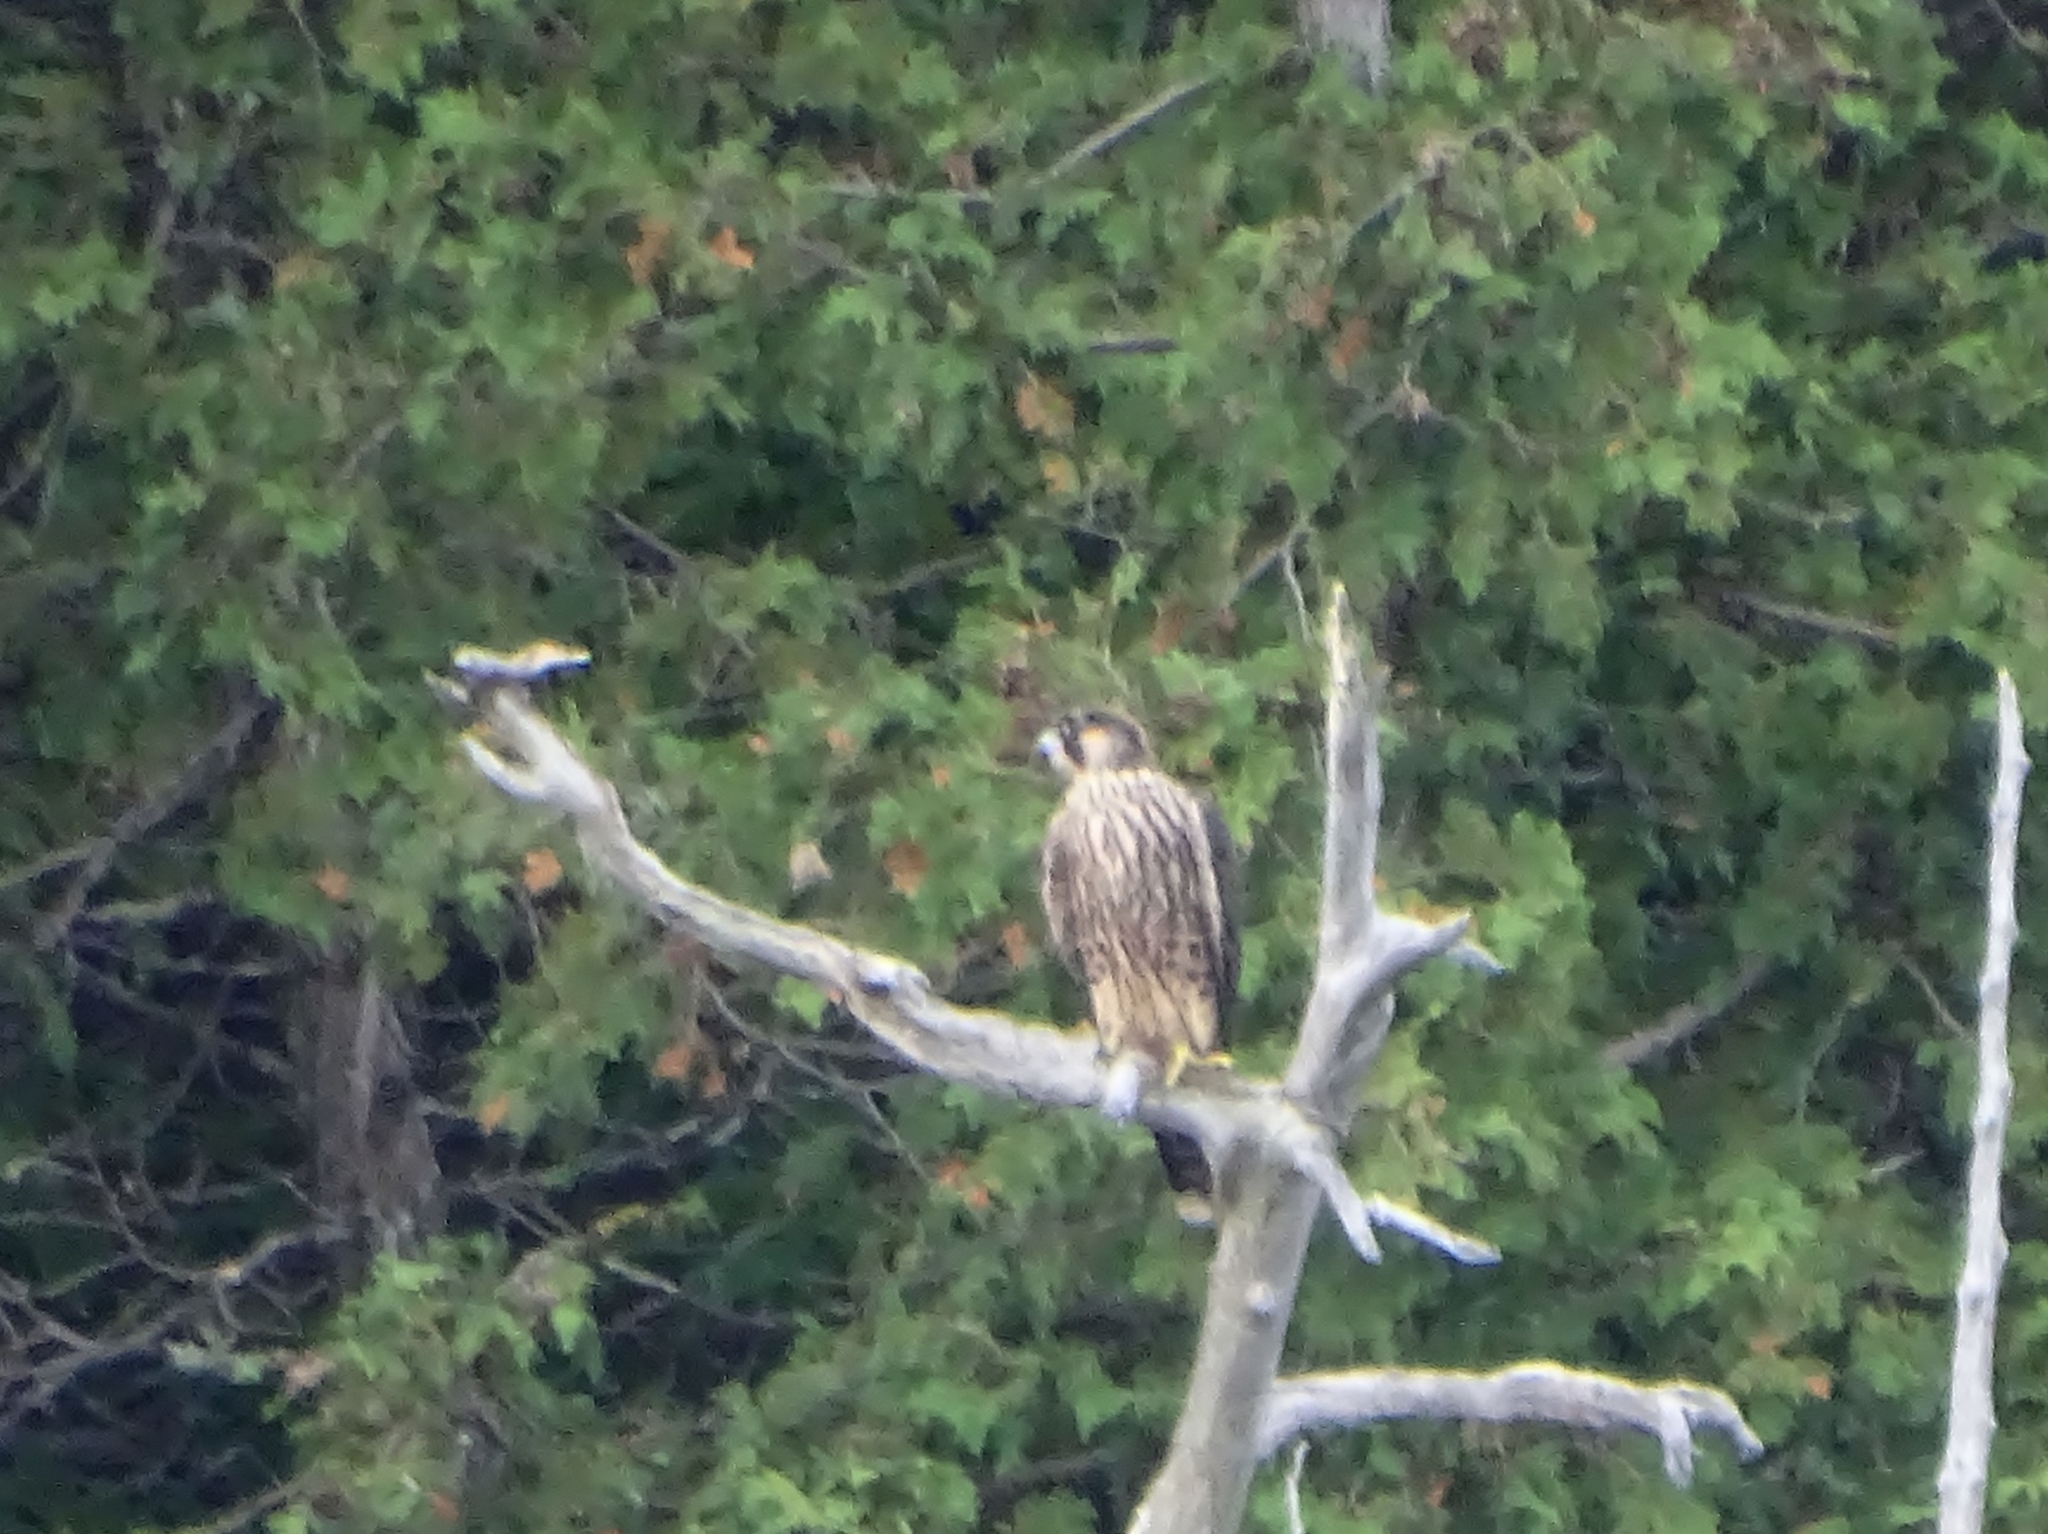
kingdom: Animalia
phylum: Chordata
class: Aves
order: Falconiformes
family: Falconidae
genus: Falco
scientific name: Falco peregrinus
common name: Peregrine falcon
